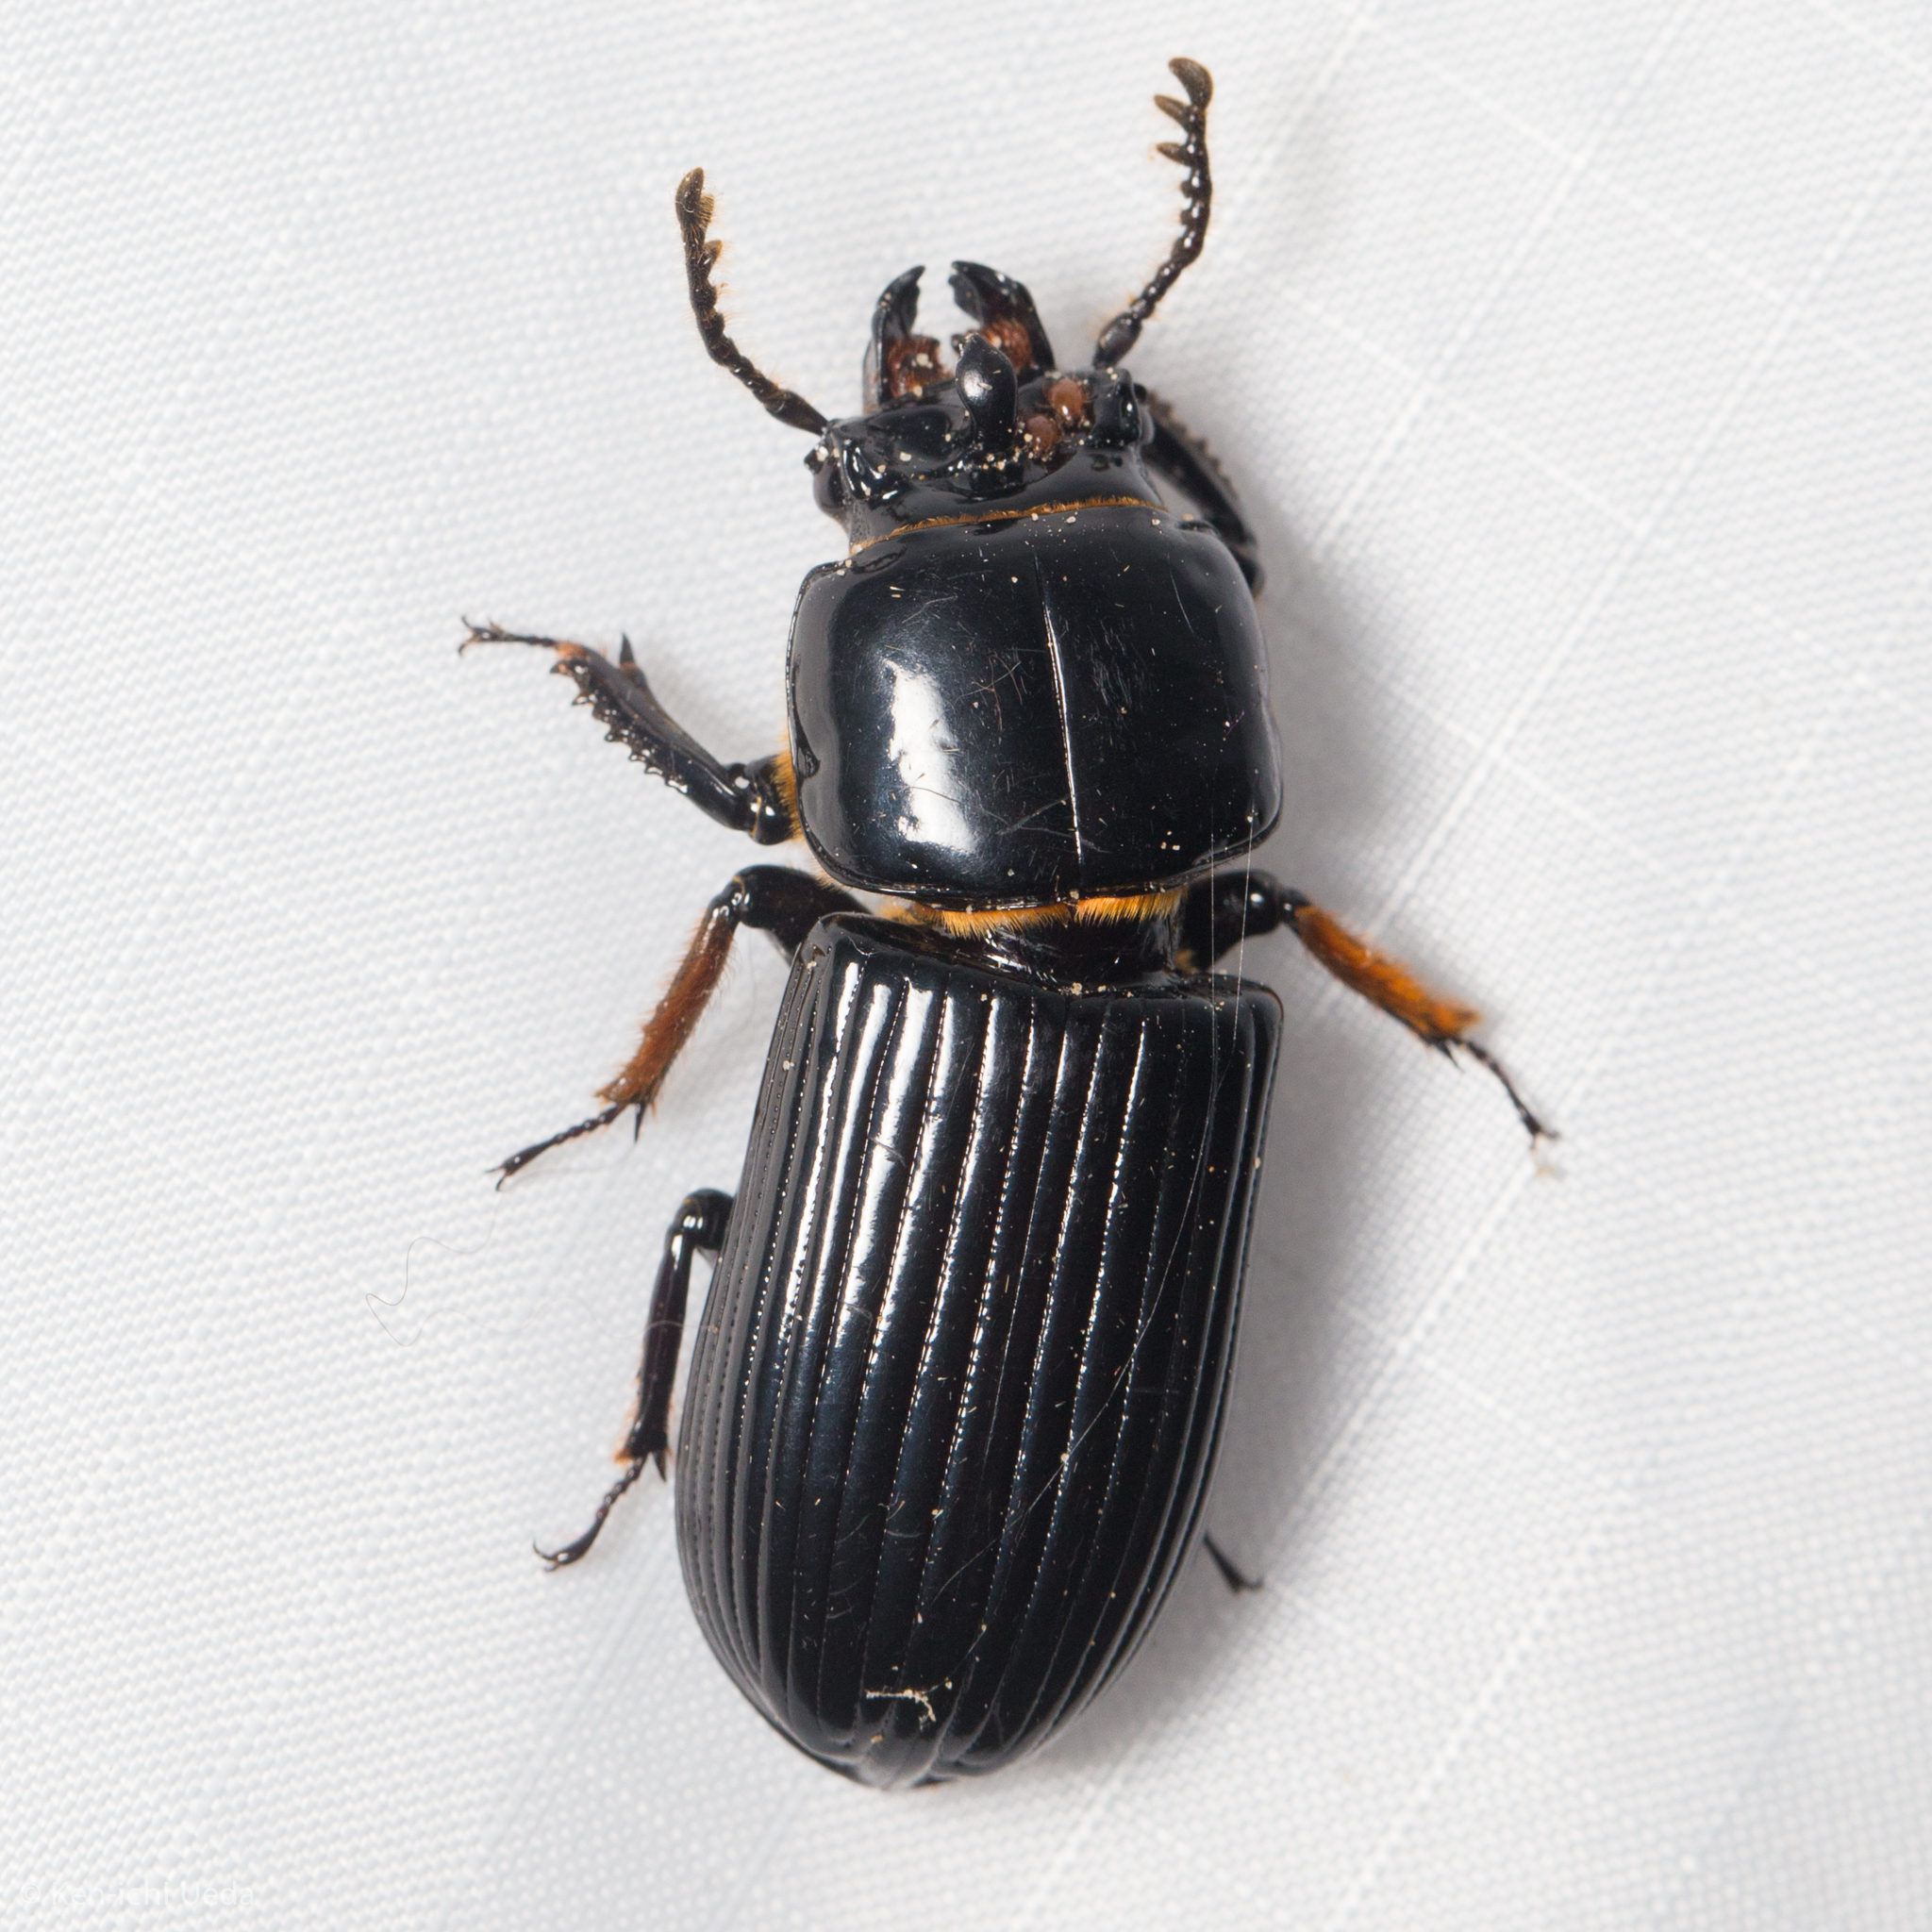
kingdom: Animalia
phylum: Arthropoda
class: Insecta
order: Coleoptera
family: Passalidae
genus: Odontotaenius
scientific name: Odontotaenius disjunctus
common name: Patent leather beetle
